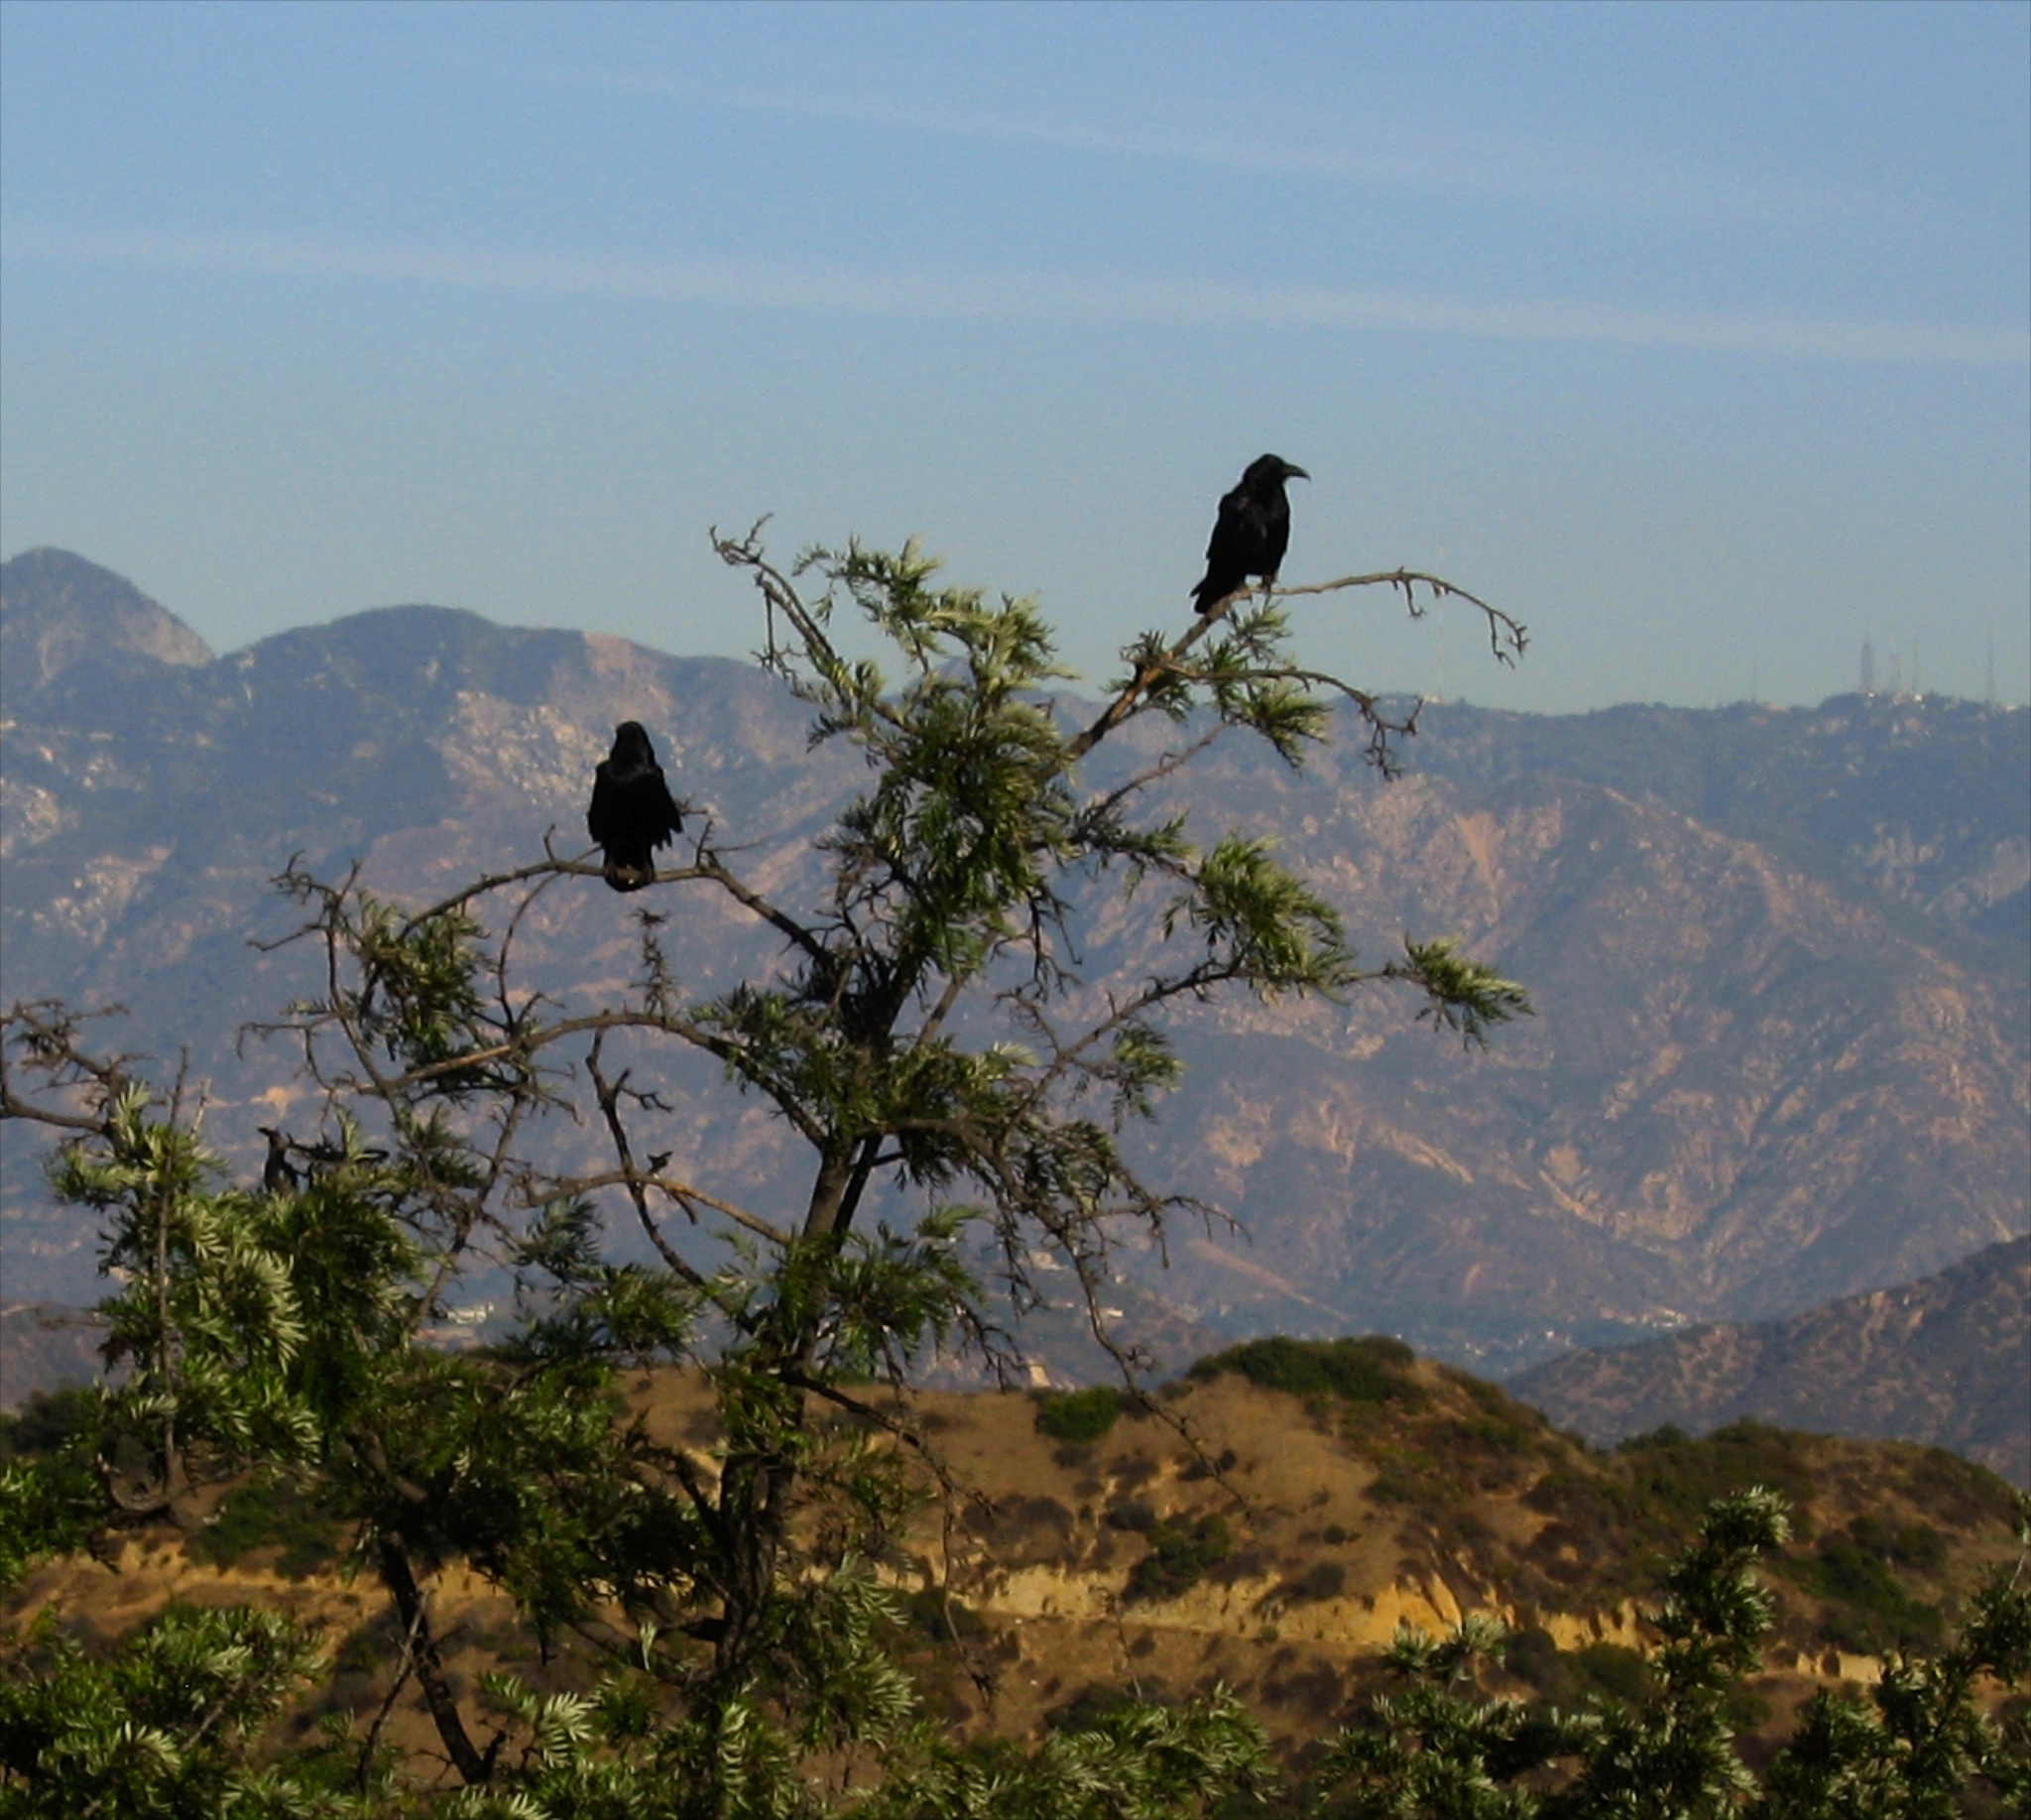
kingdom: Animalia
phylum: Chordata
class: Aves
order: Passeriformes
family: Corvidae
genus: Corvus
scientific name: Corvus corax
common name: Common raven
